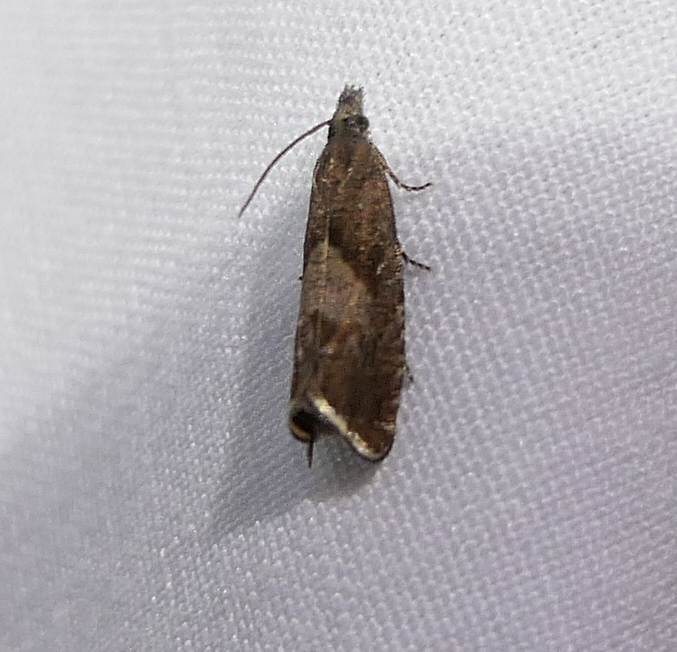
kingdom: Animalia
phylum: Arthropoda
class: Insecta
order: Lepidoptera
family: Tortricidae
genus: Dichrorampha
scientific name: Dichrorampha acuminatana
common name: Sharp-winged drill
